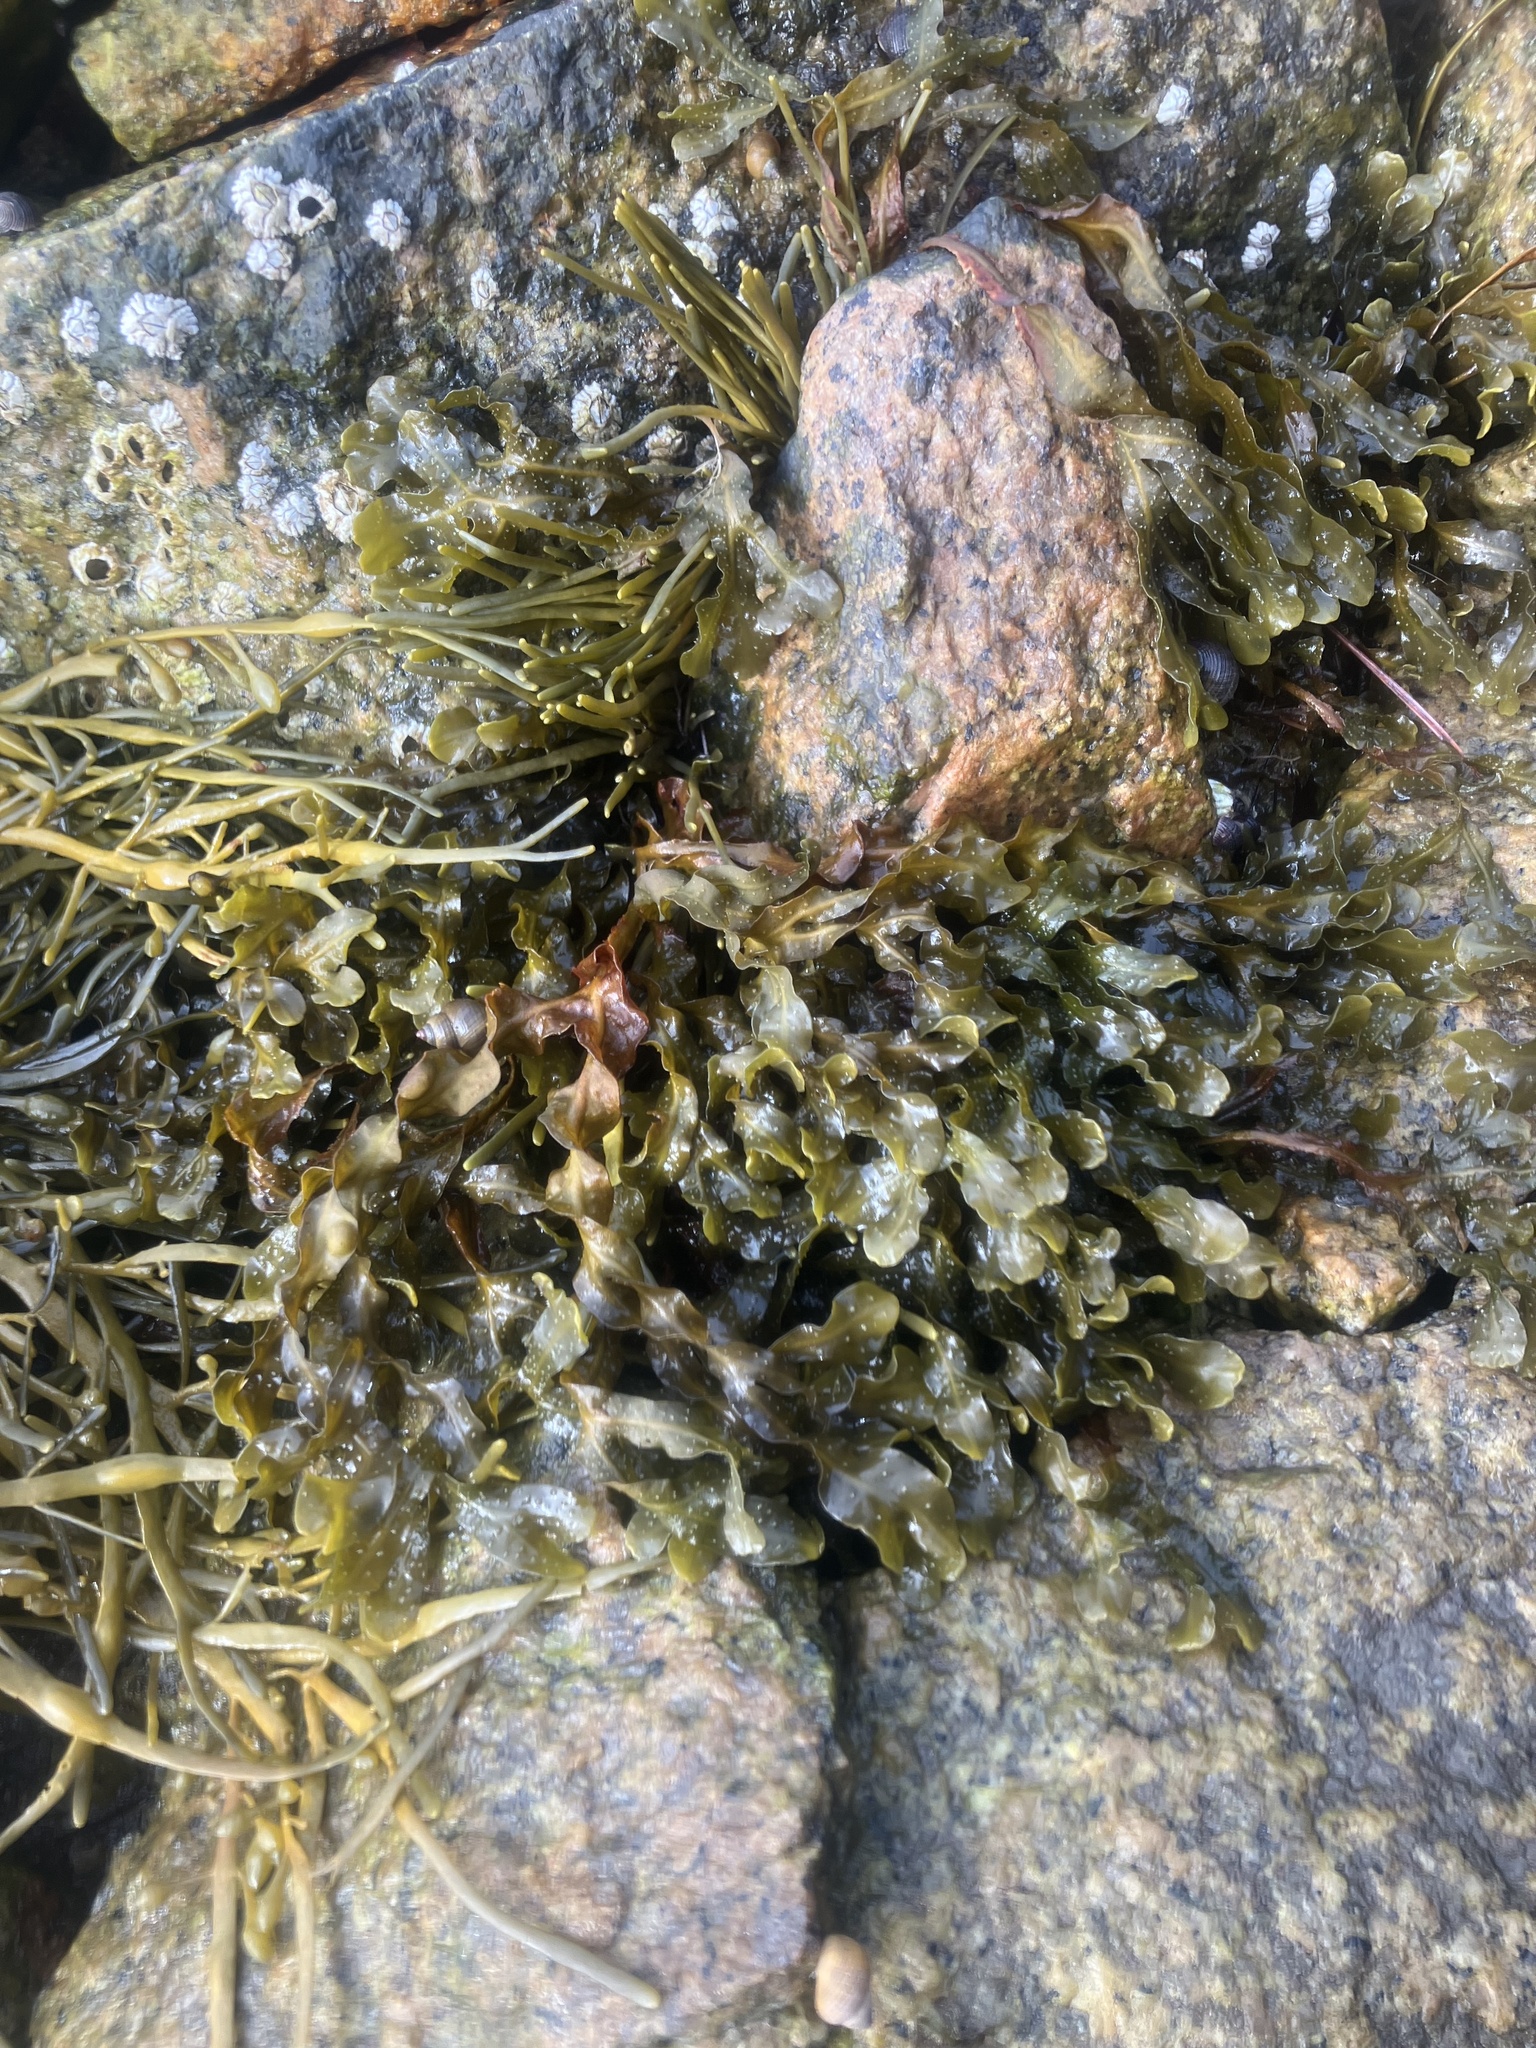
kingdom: Chromista
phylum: Ochrophyta
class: Phaeophyceae
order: Fucales
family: Fucaceae
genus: Fucus
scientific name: Fucus spiralis
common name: Spiral wrack
